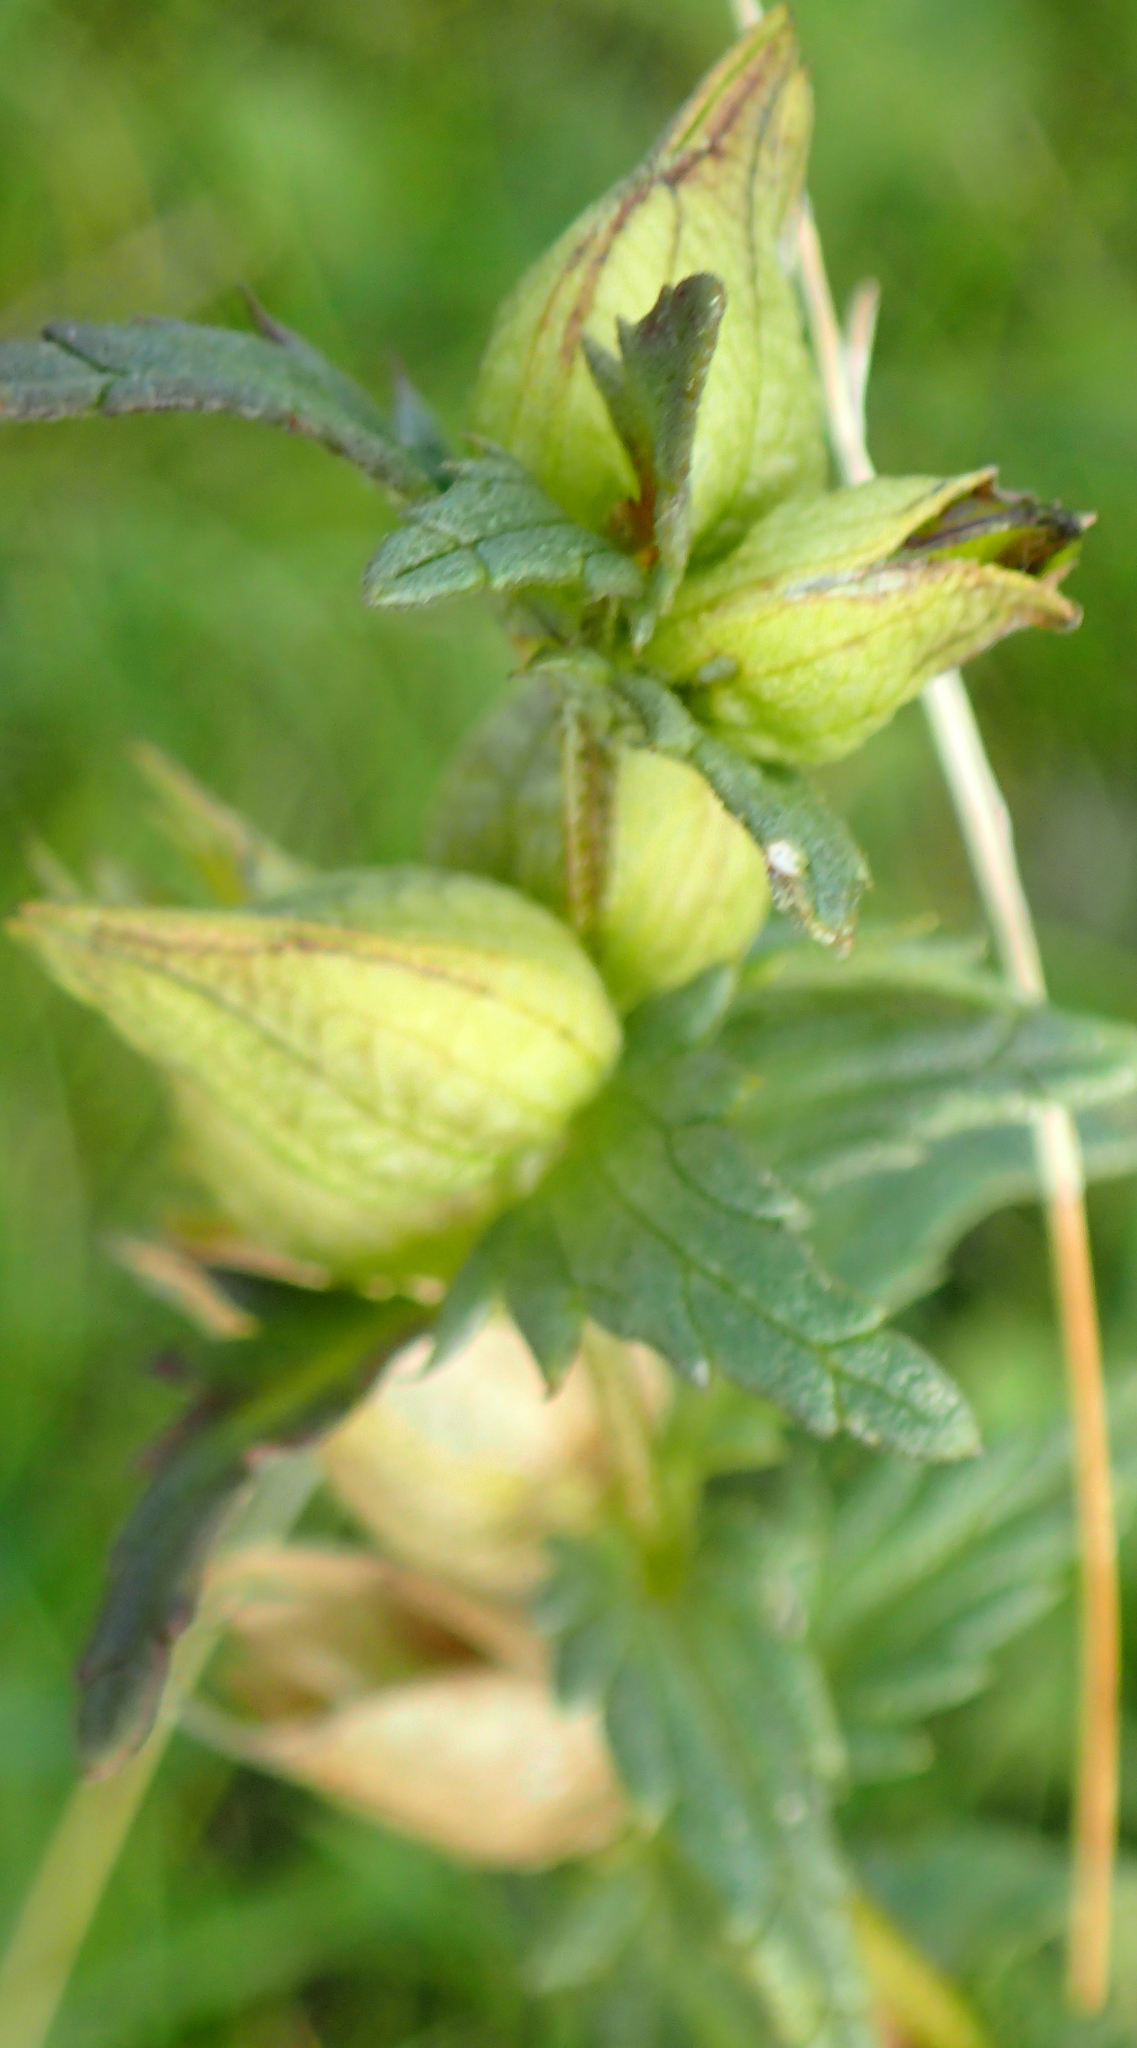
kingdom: Plantae
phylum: Tracheophyta
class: Magnoliopsida
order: Lamiales
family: Orobanchaceae
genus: Rhinanthus
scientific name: Rhinanthus minor
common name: Yellow-rattle
